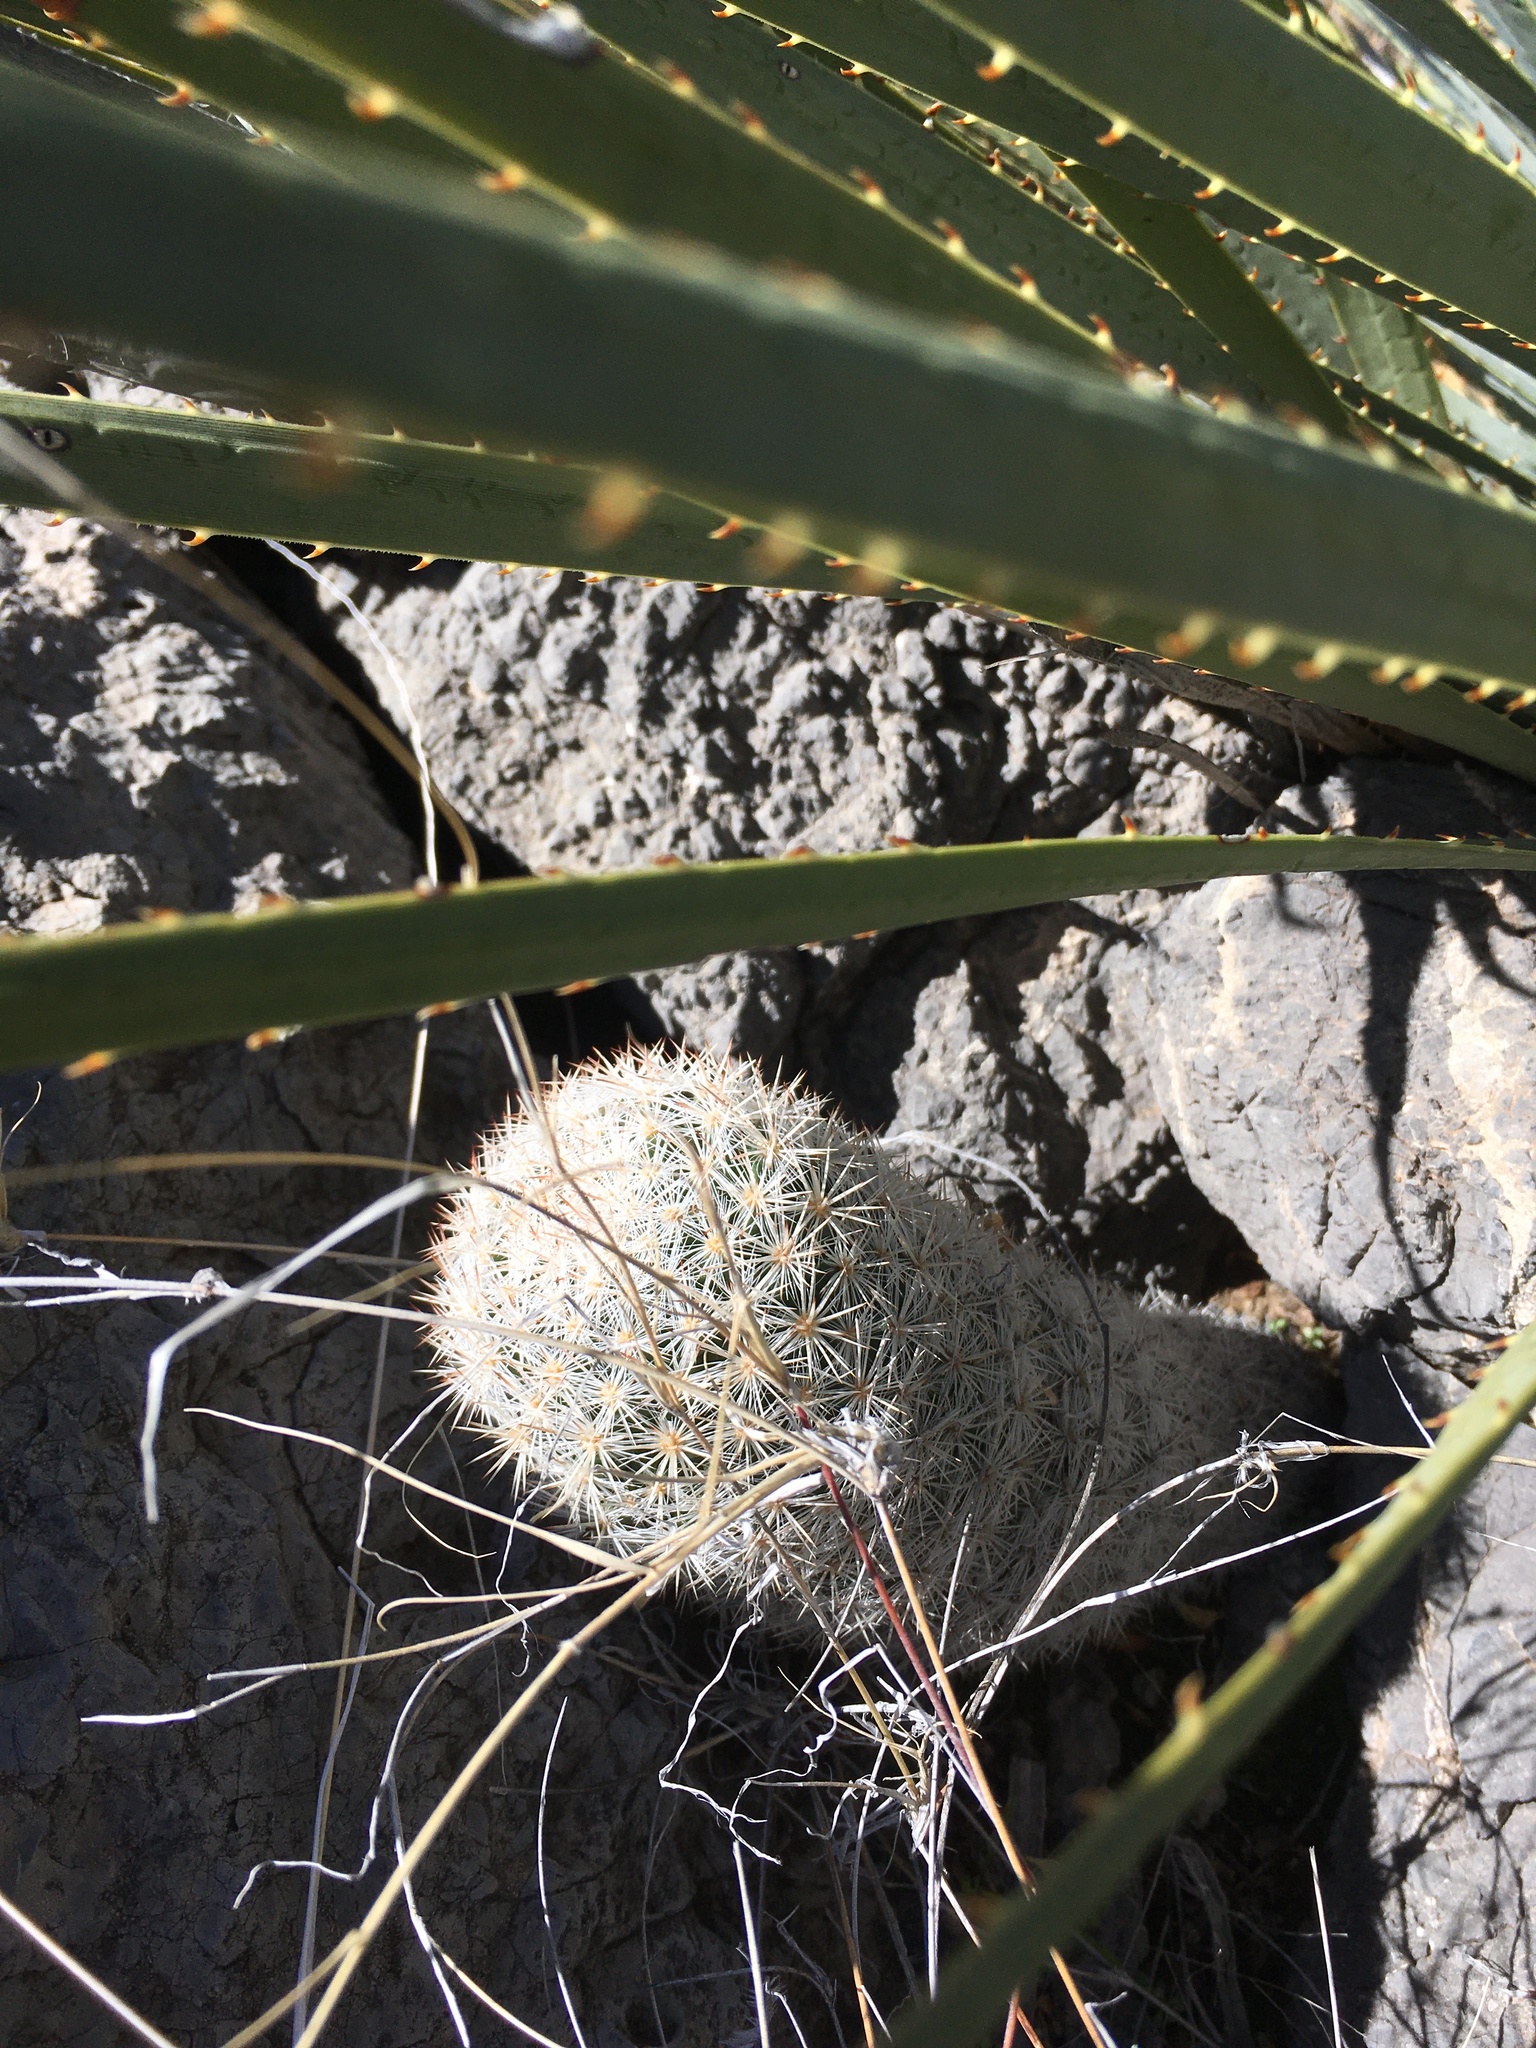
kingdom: Plantae
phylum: Tracheophyta
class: Magnoliopsida
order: Caryophyllales
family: Cactaceae
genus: Pelecyphora
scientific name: Pelecyphora sneedii
